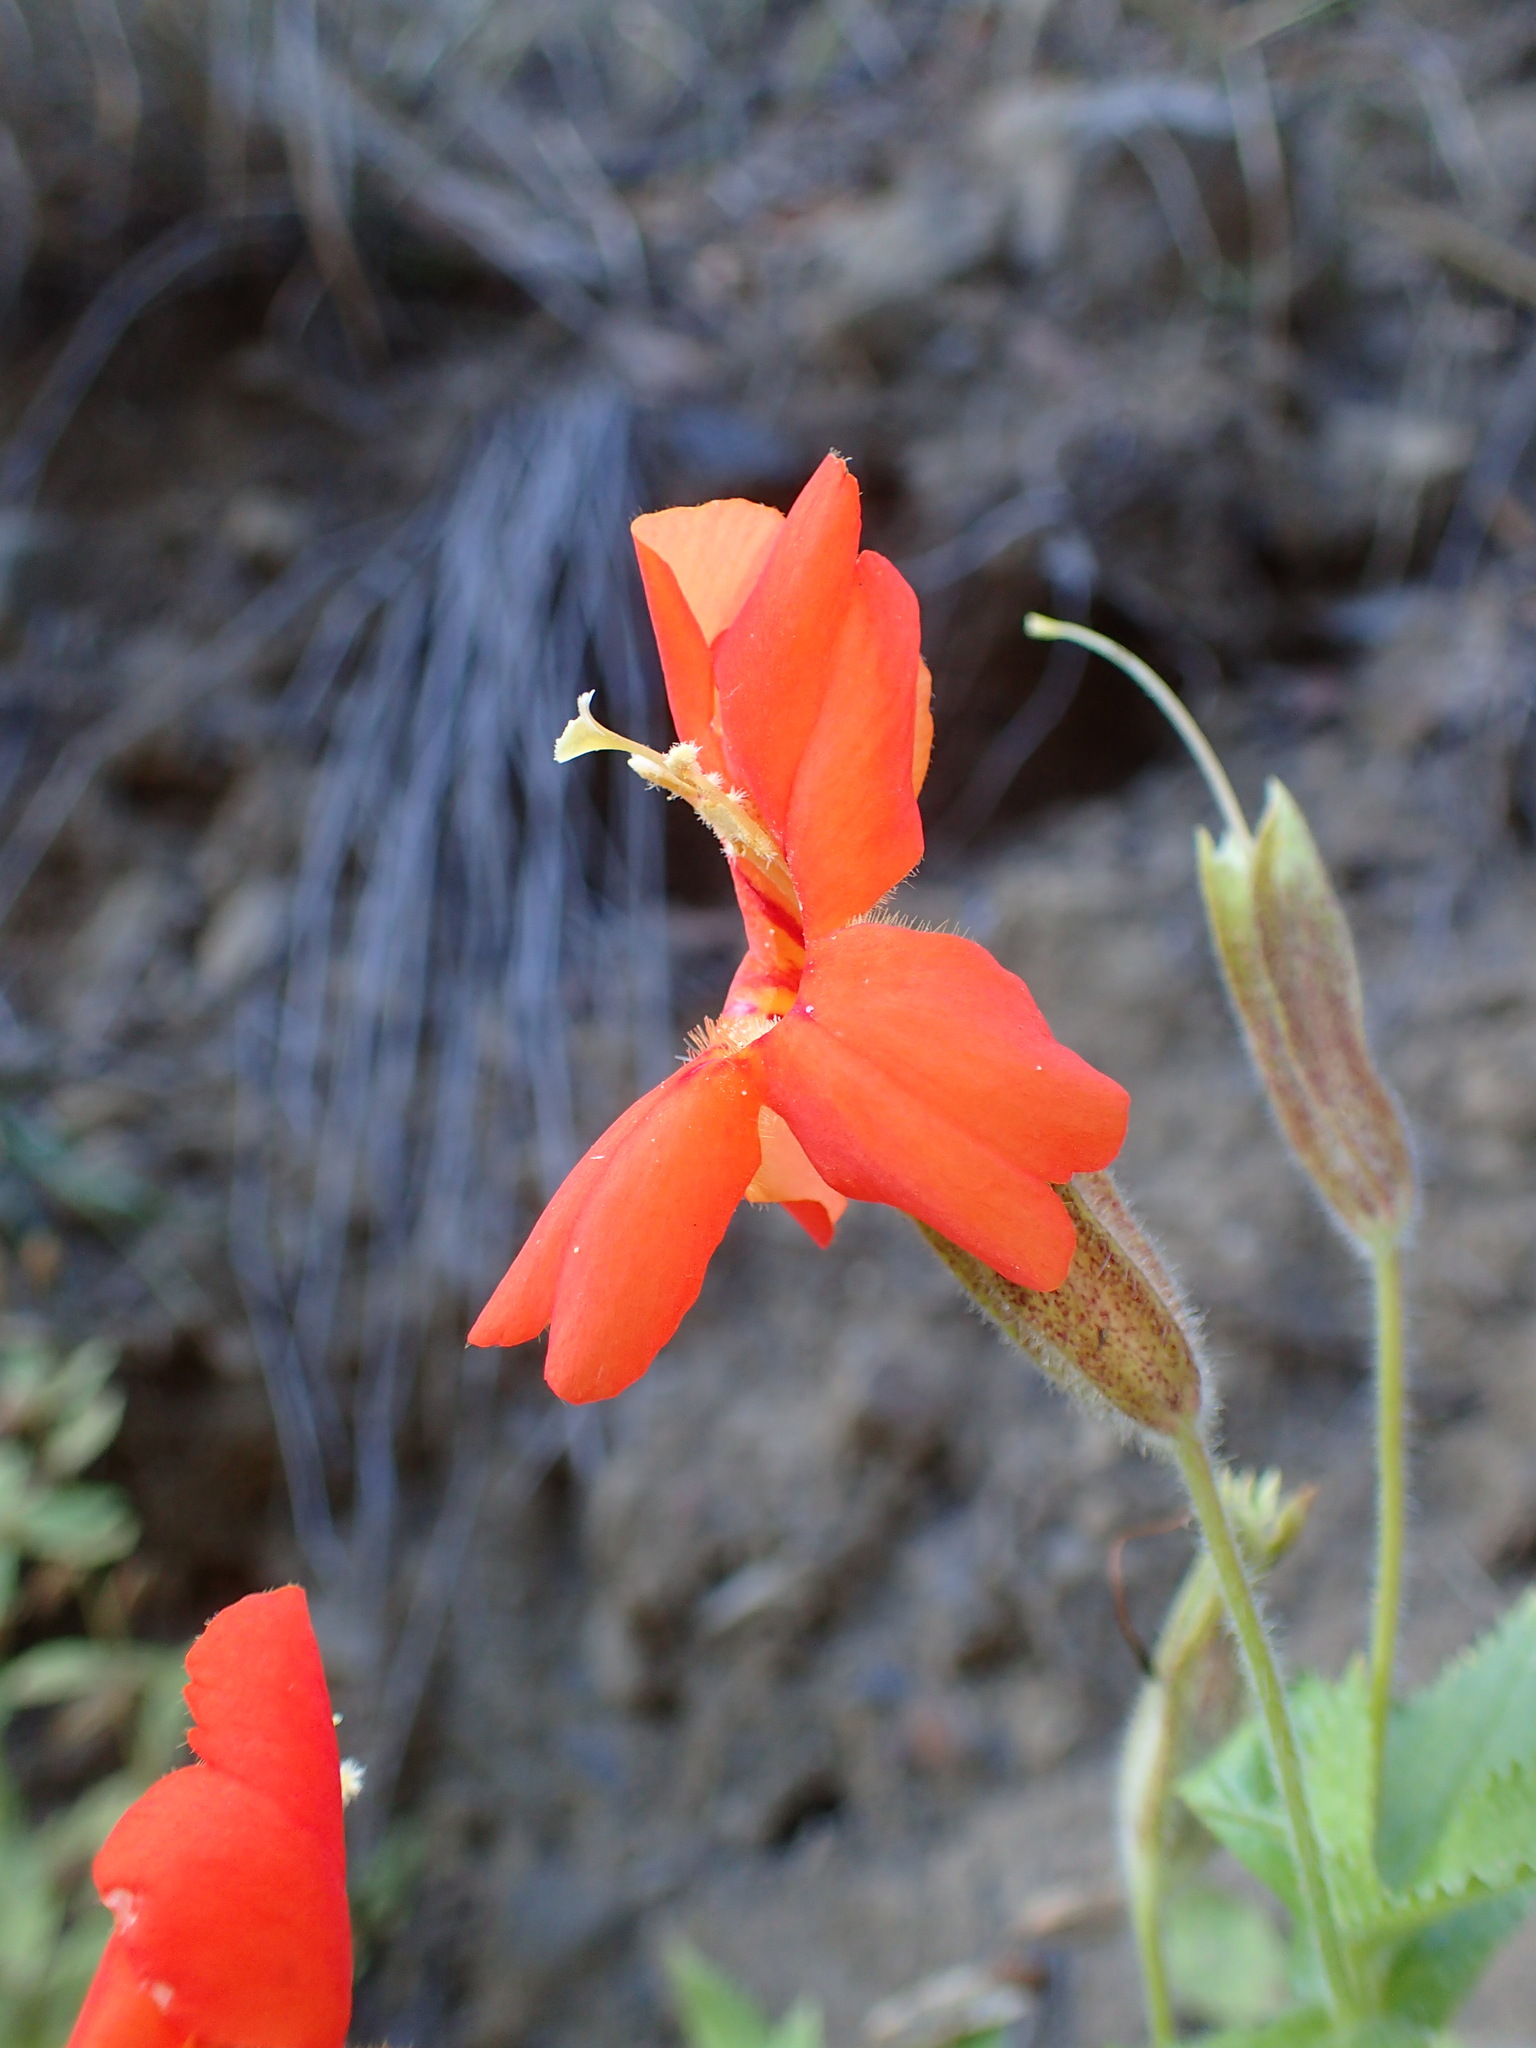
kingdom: Plantae
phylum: Tracheophyta
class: Magnoliopsida
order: Lamiales
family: Phrymaceae
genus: Erythranthe
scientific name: Erythranthe cardinalis
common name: Scarlet monkey-flower
